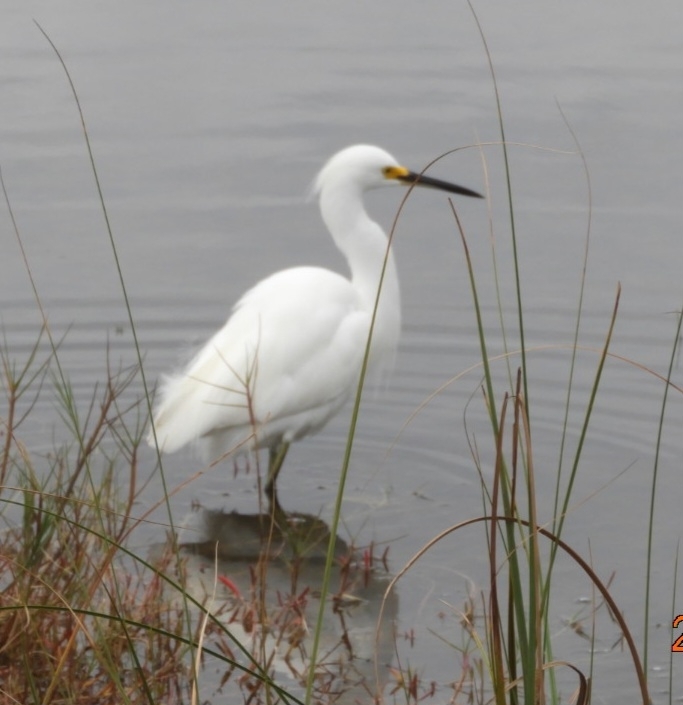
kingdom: Animalia
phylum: Chordata
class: Aves
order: Pelecaniformes
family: Ardeidae
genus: Egretta
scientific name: Egretta thula
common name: Snowy egret
